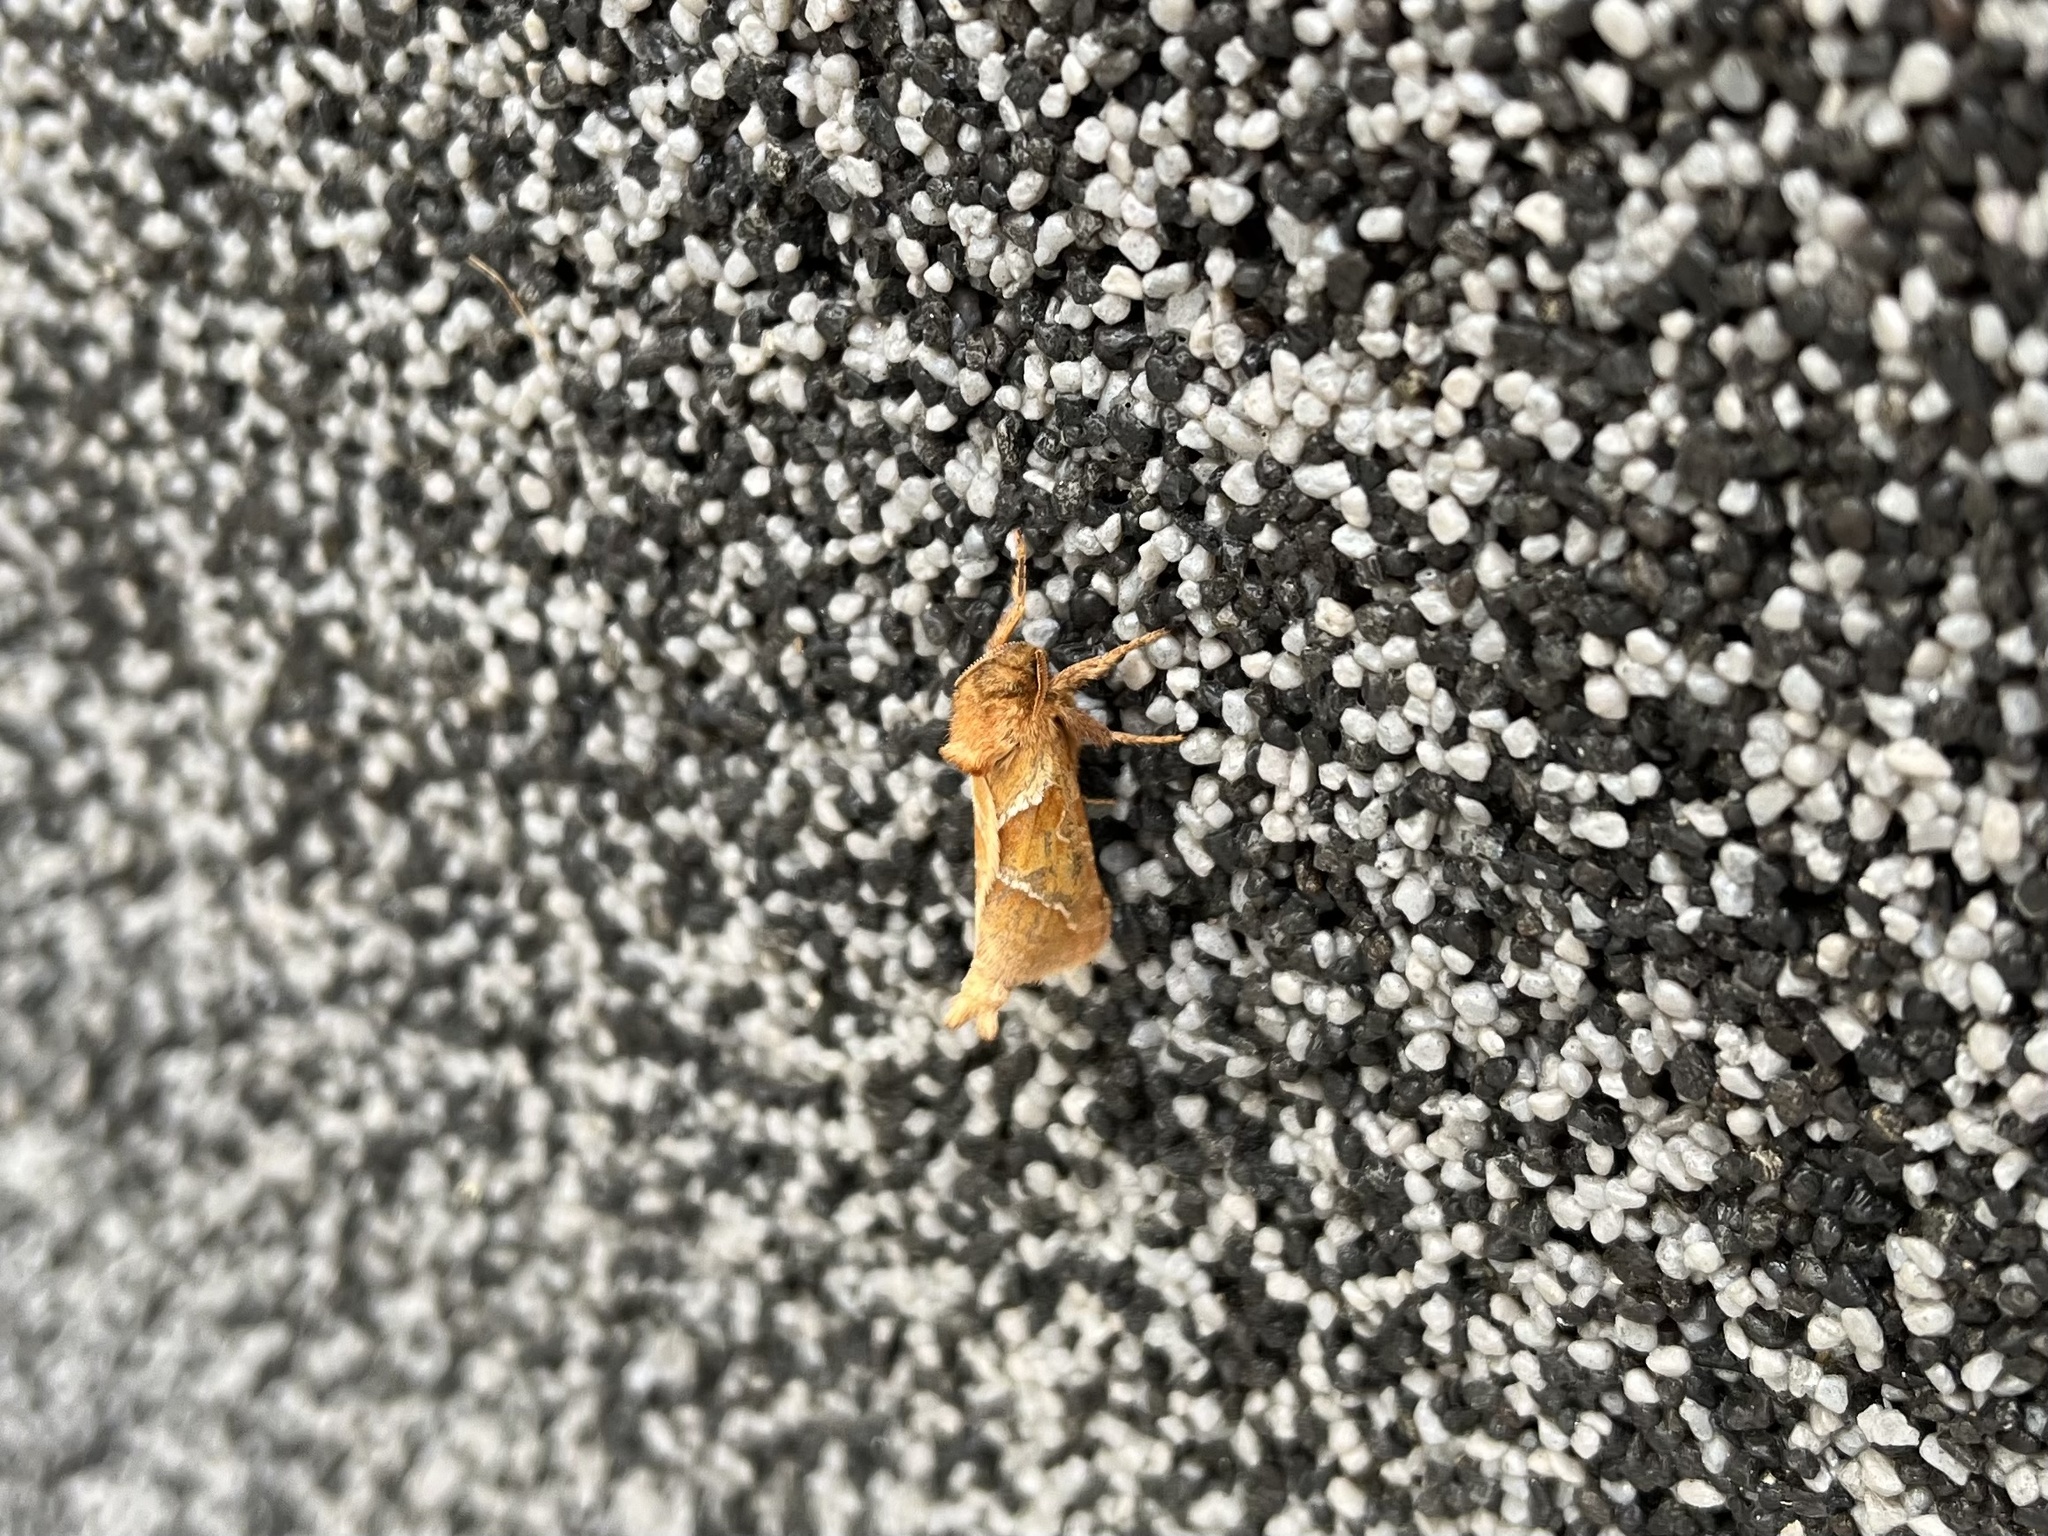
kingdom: Animalia
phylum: Arthropoda
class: Insecta
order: Lepidoptera
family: Hepialidae
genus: Triodia
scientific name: Triodia sylvina
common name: Orange swift
